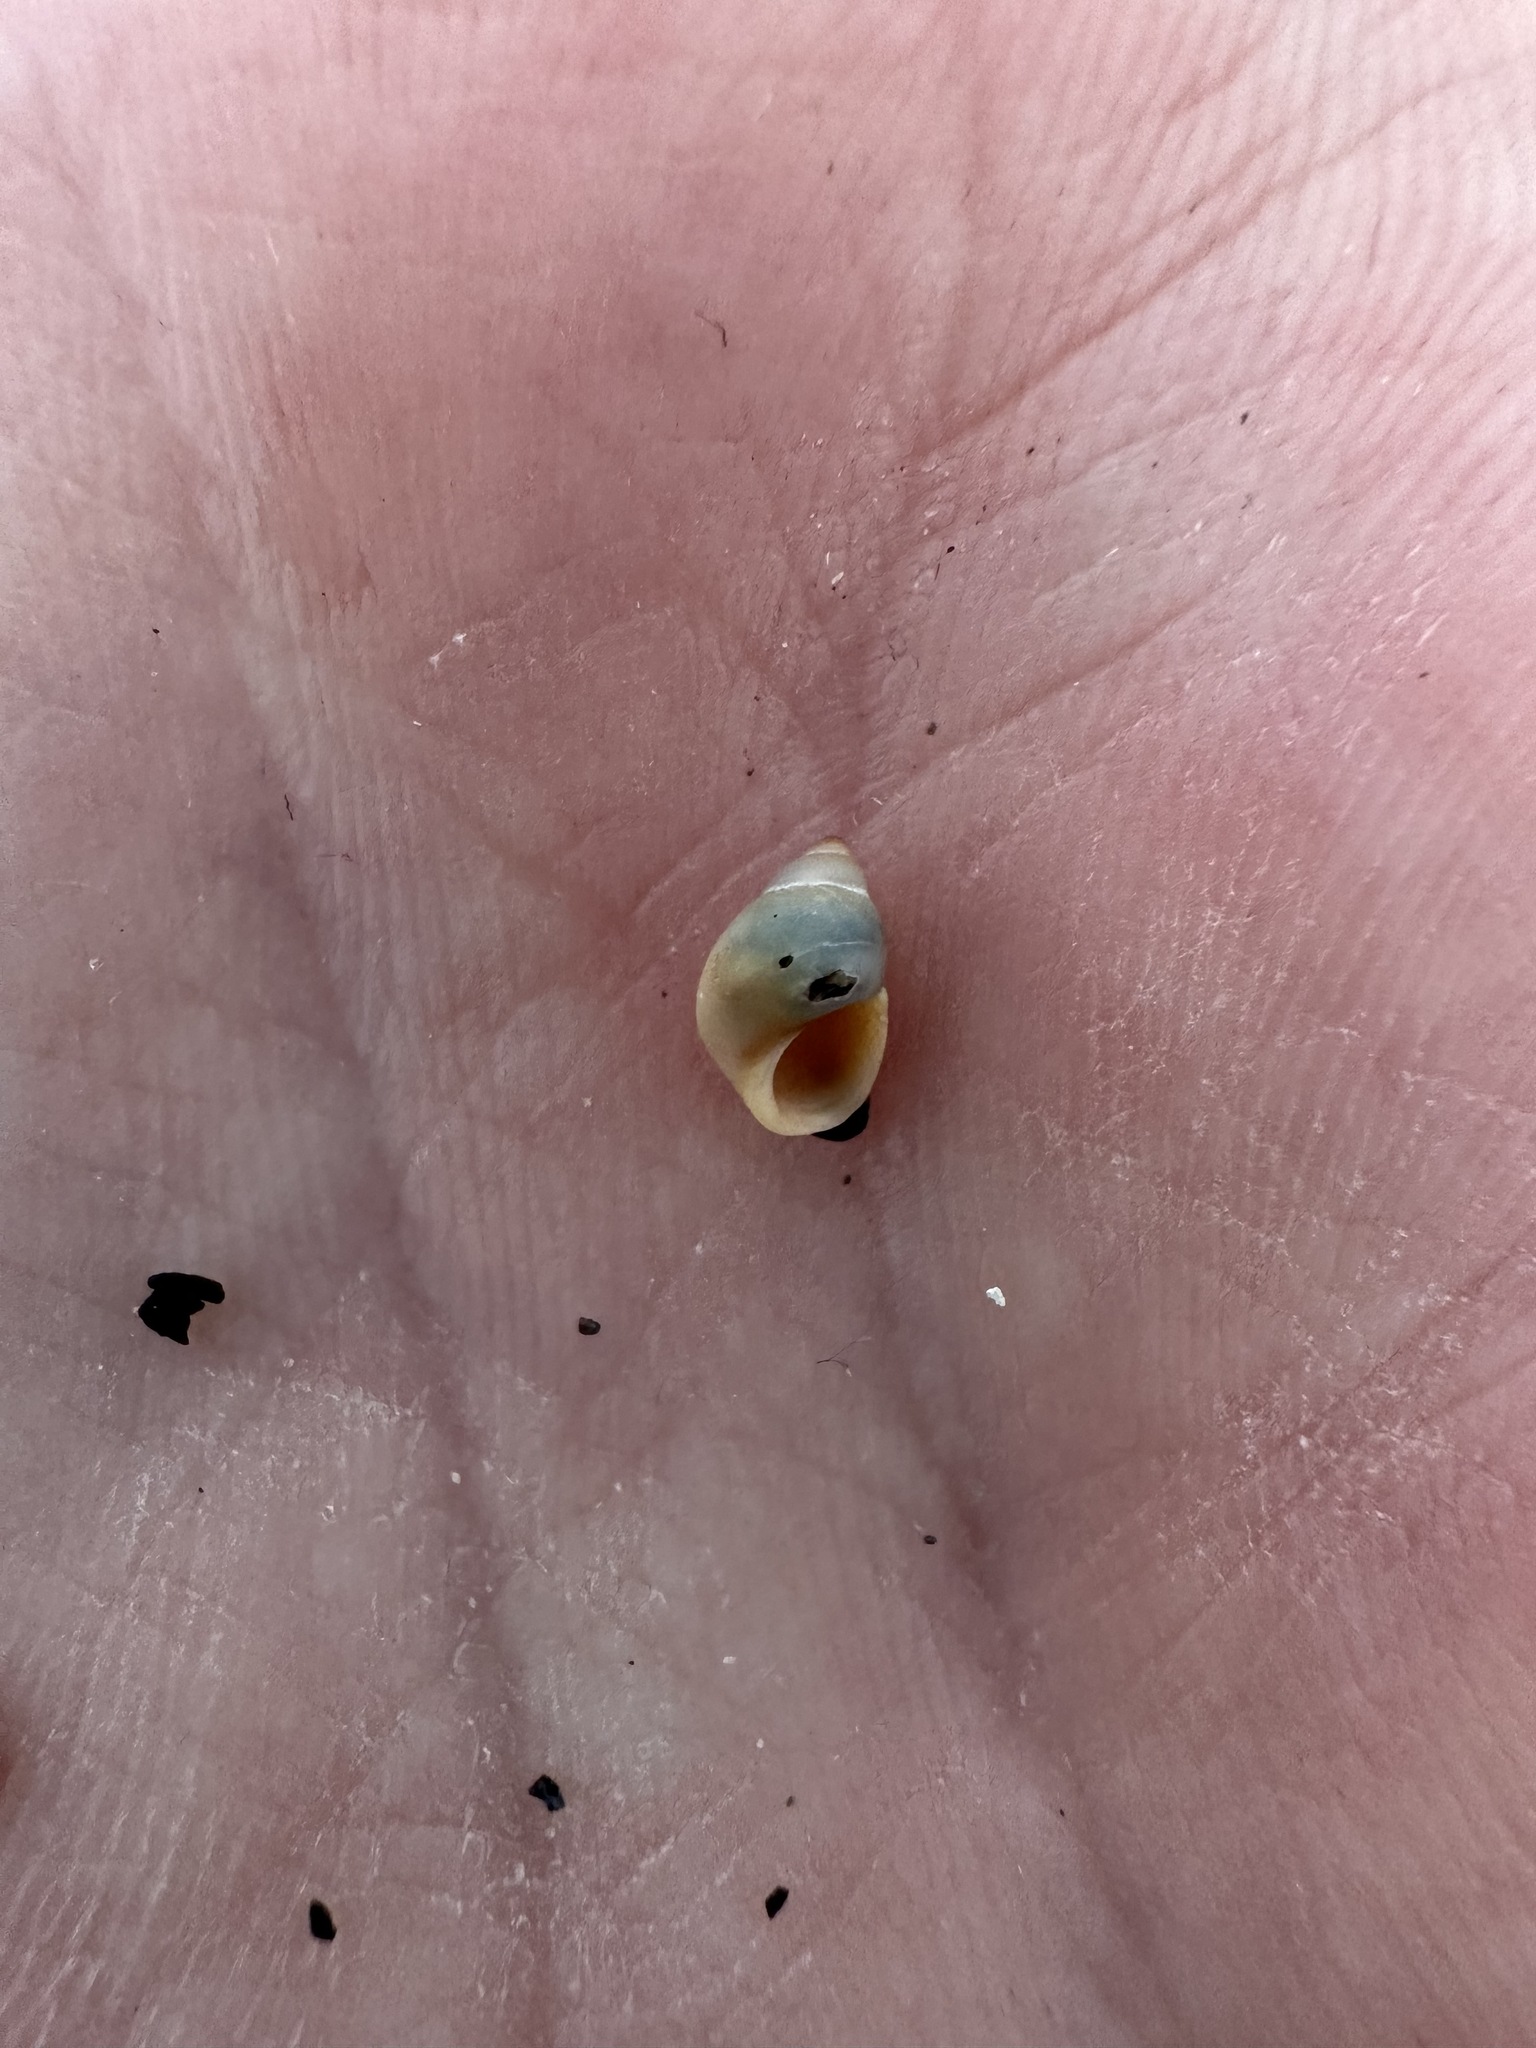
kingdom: Animalia
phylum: Mollusca
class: Gastropoda
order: Littorinimorpha
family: Littorinidae
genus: Lacuna
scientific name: Lacuna vincta
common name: Banded chink shell
